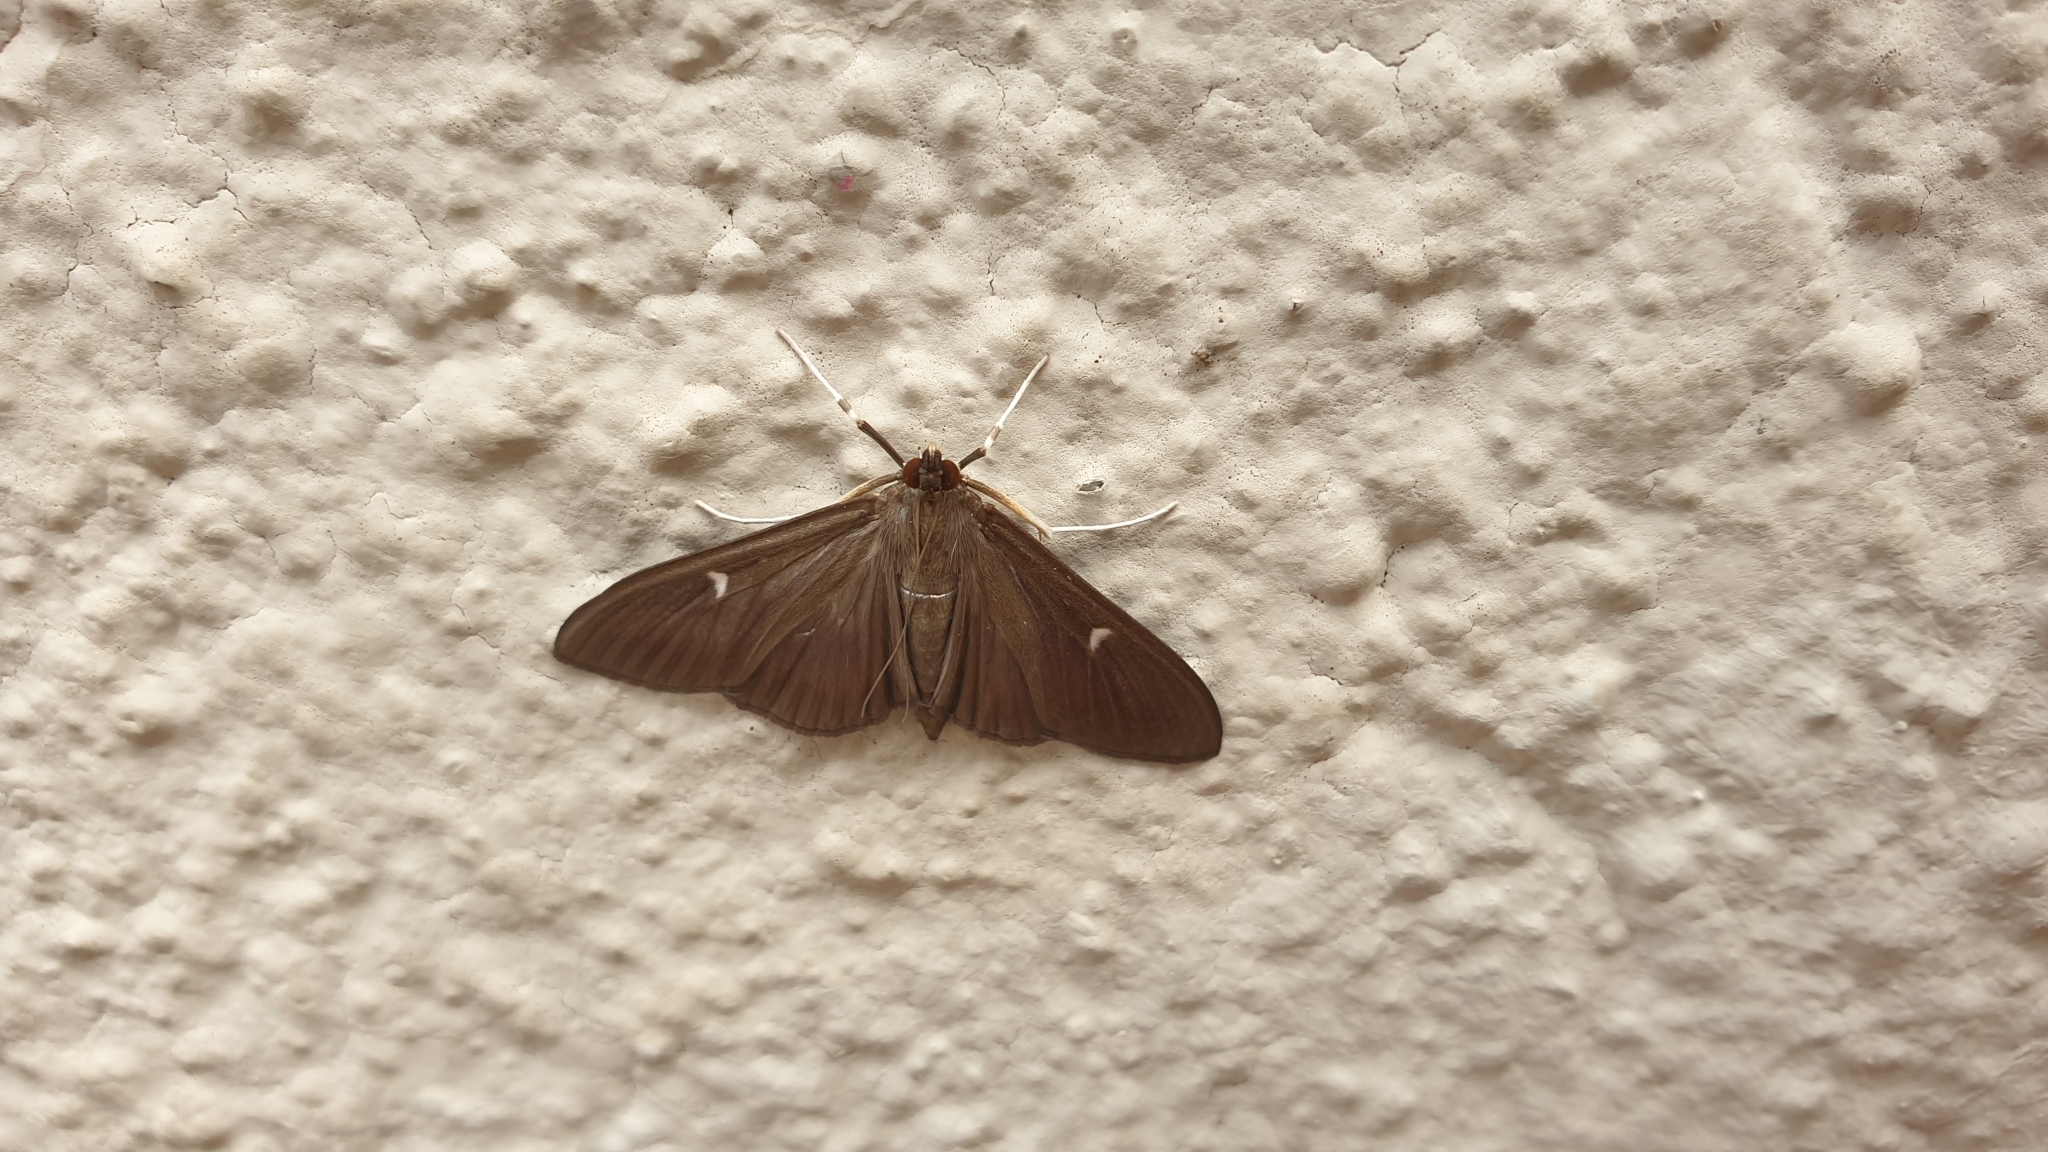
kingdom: Animalia
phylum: Arthropoda
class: Insecta
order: Lepidoptera
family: Crambidae
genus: Cydalima
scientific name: Cydalima perspectalis
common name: Box tree moth
